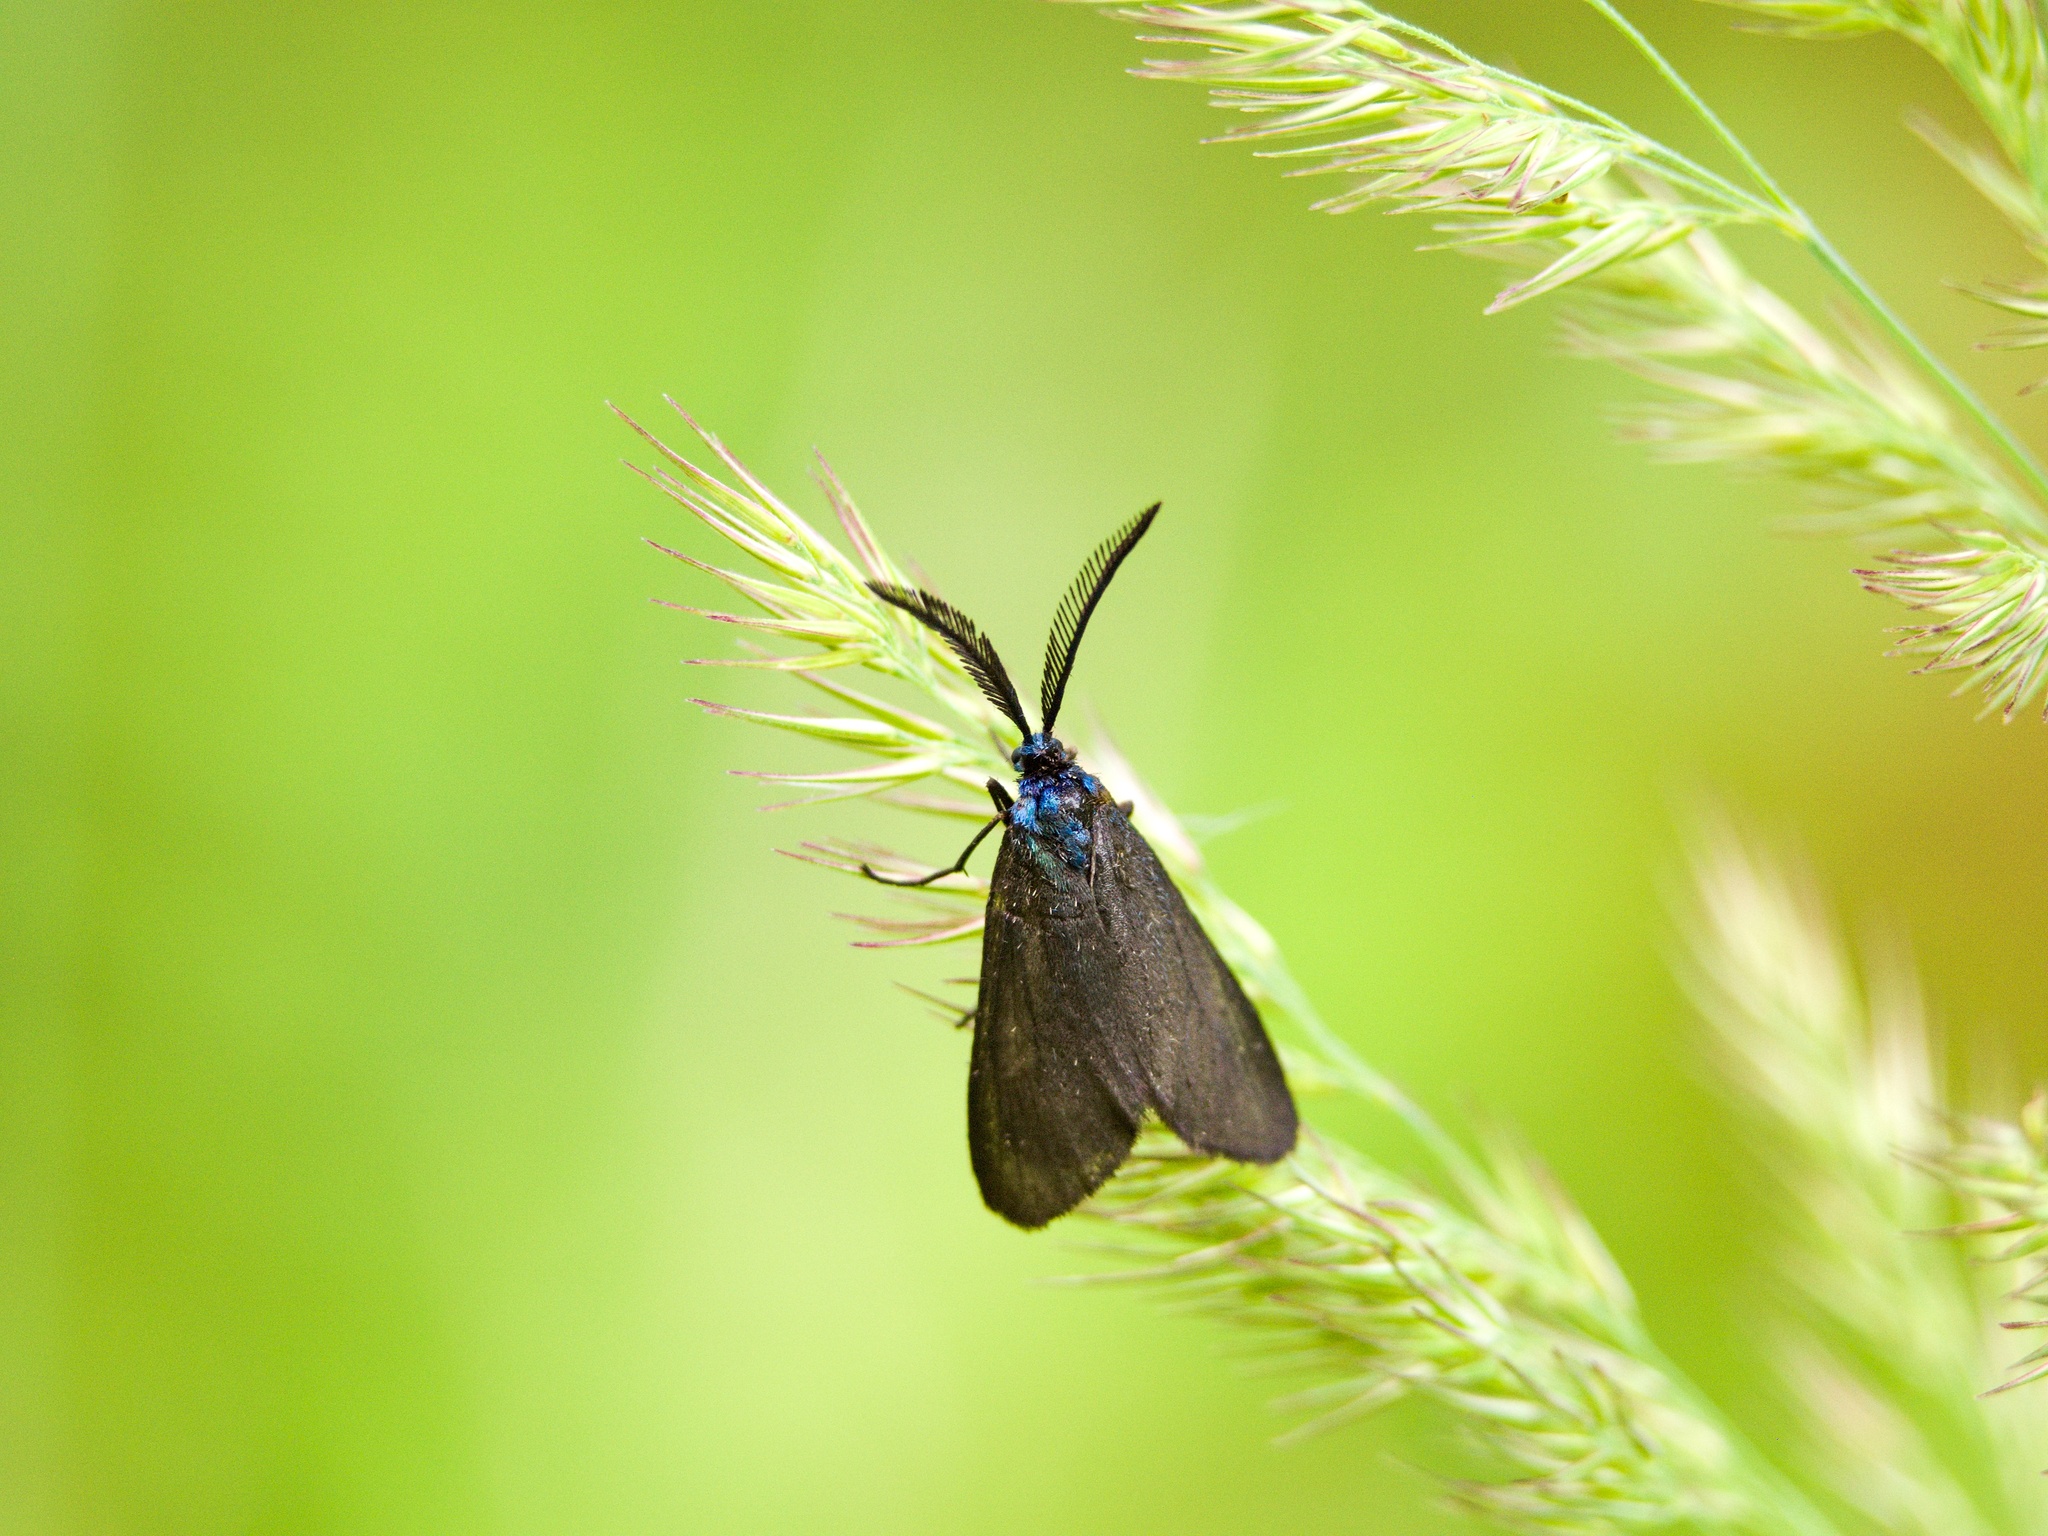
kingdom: Animalia
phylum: Arthropoda
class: Insecta
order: Lepidoptera
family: Zygaenidae
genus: Rhagades
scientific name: Rhagades pruni
